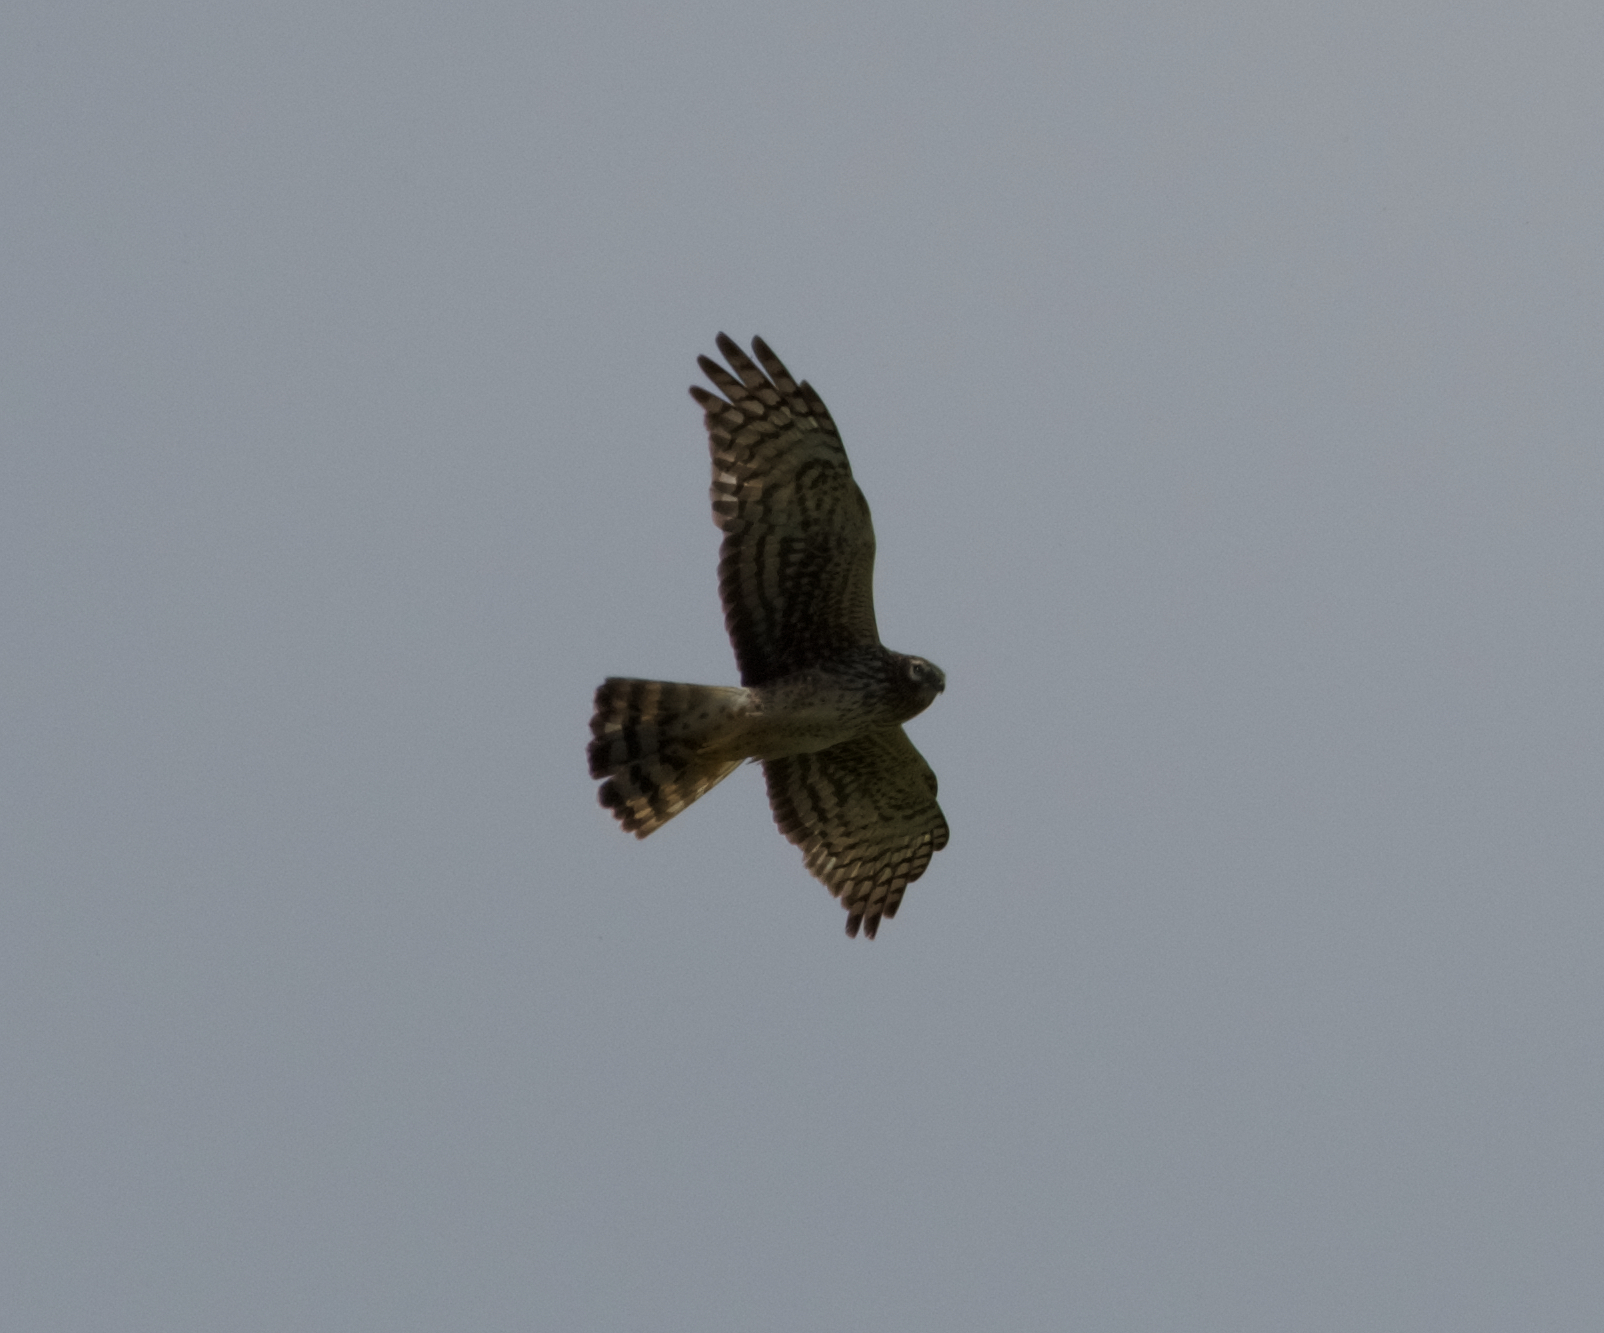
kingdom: Animalia
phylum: Chordata
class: Aves
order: Accipitriformes
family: Accipitridae
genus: Circus
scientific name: Circus cyaneus
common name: Hen harrier
